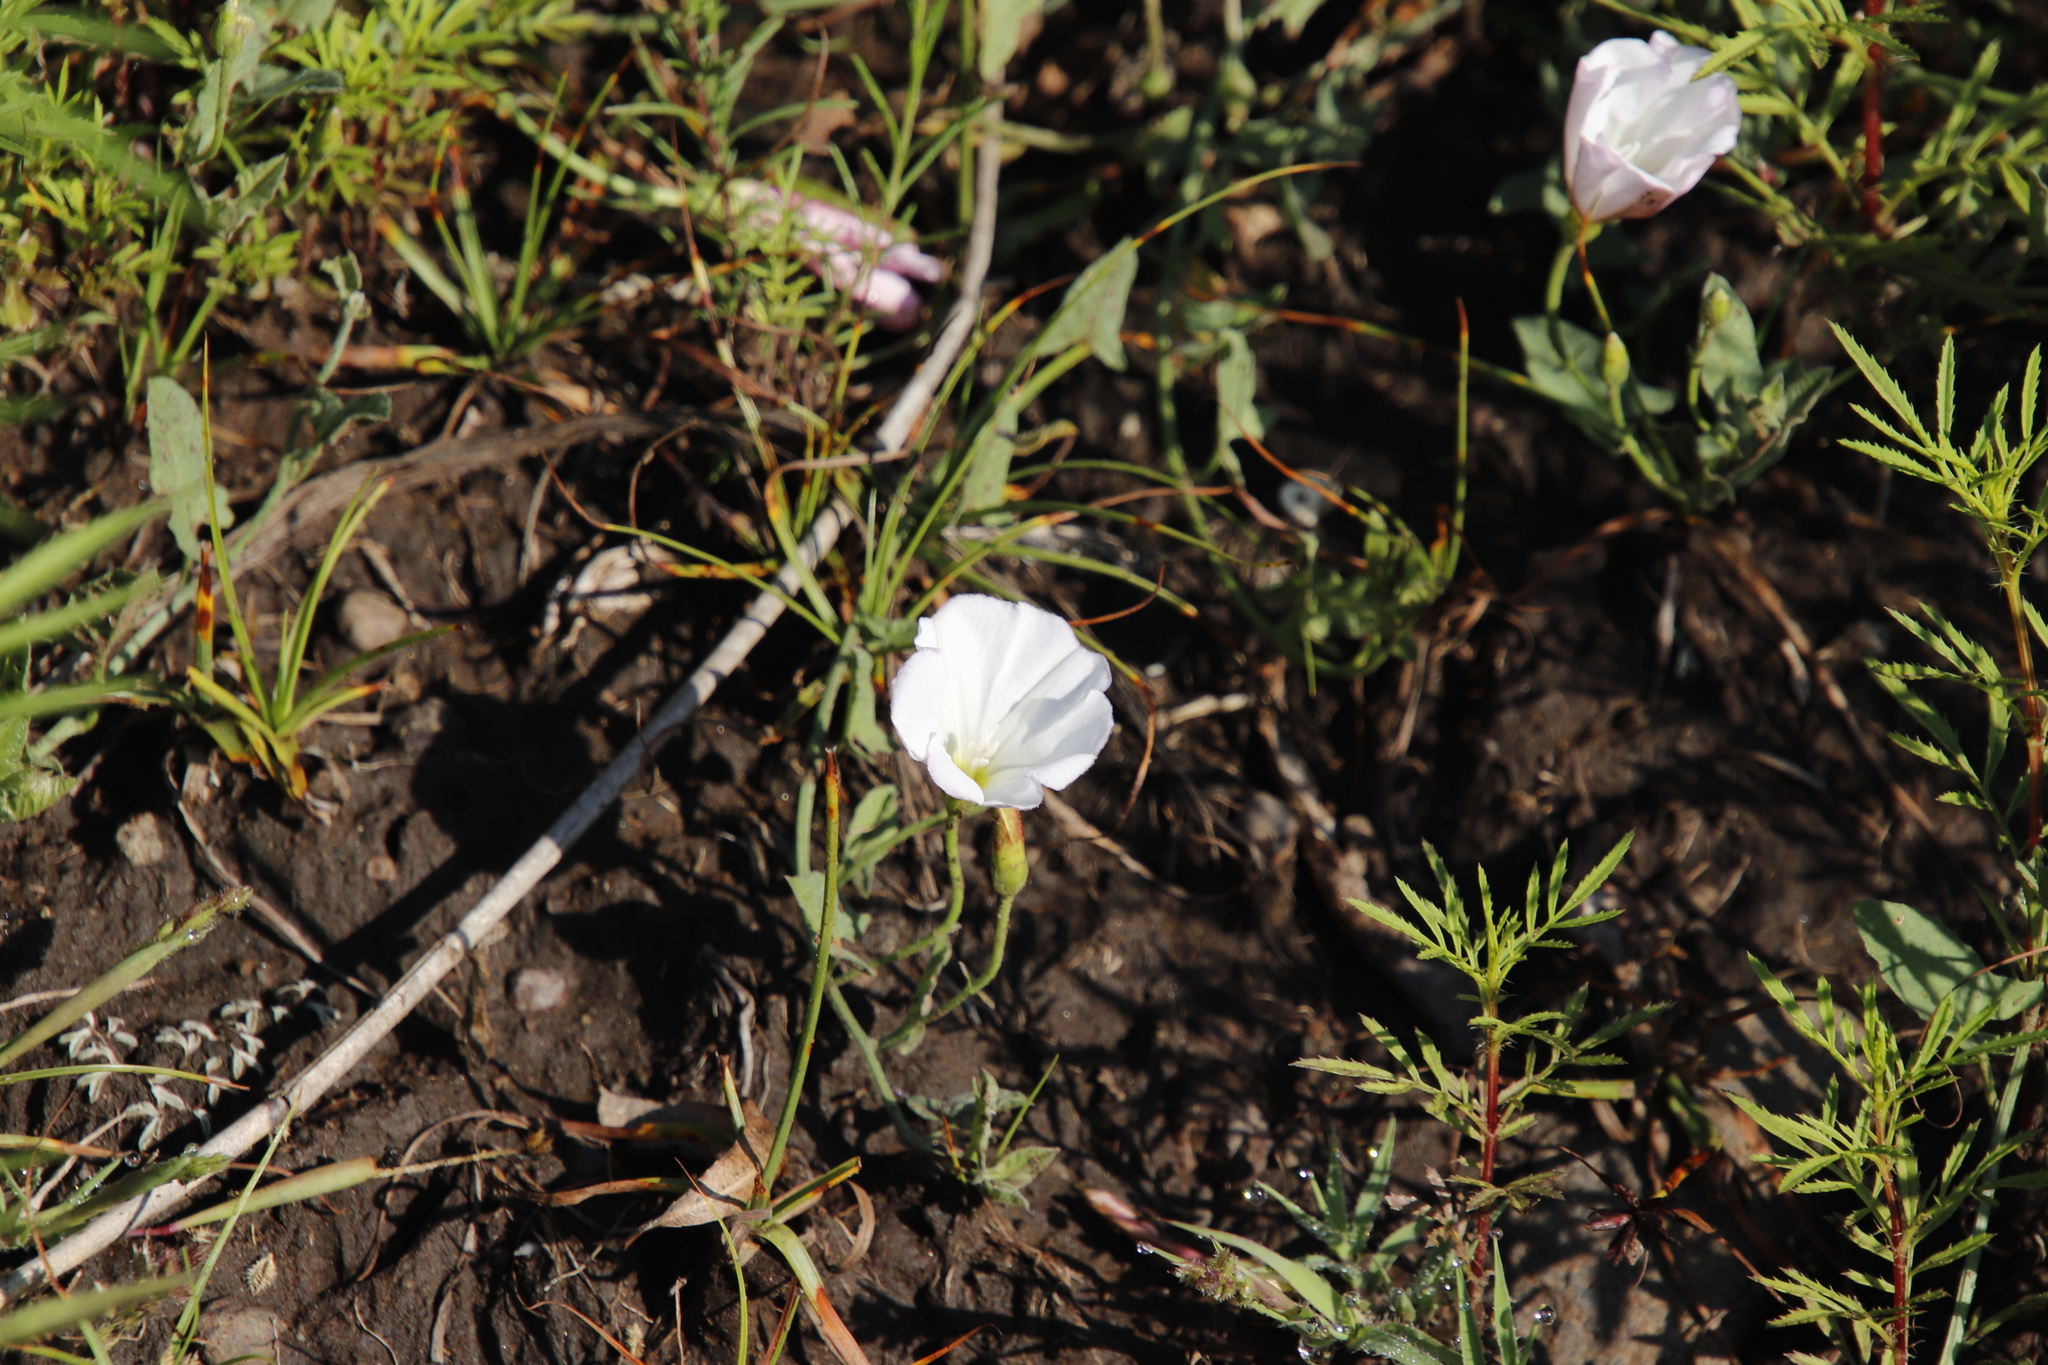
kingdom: Plantae
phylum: Tracheophyta
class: Magnoliopsida
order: Solanales
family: Convolvulaceae
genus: Convolvulus
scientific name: Convolvulus arvensis
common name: Field bindweed
